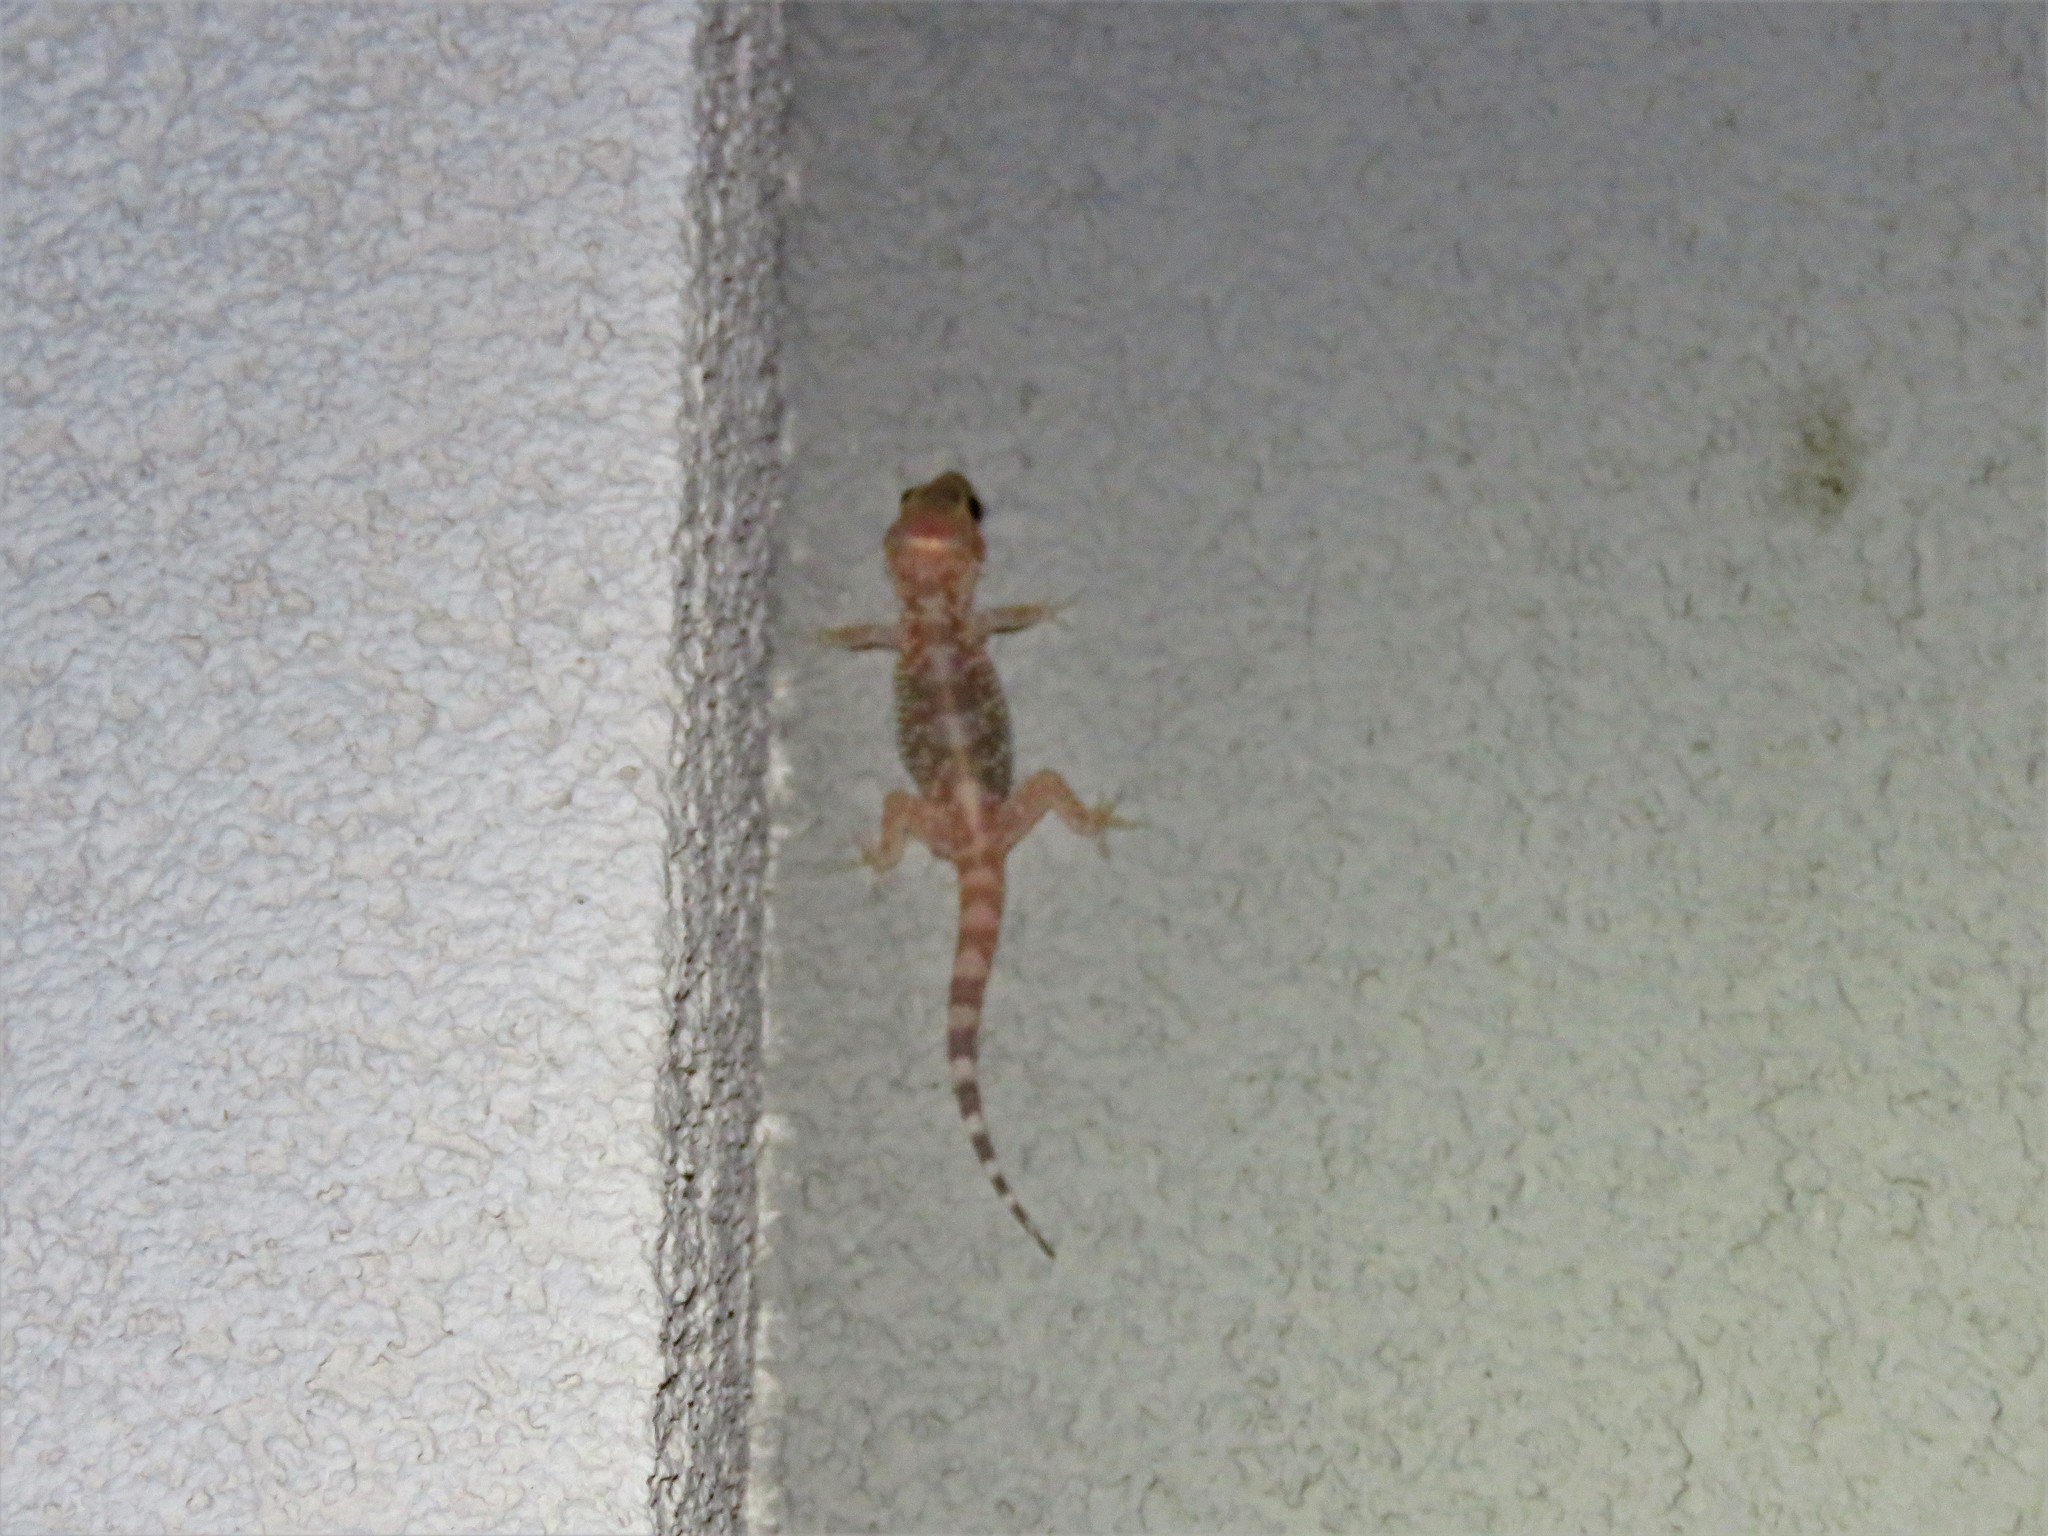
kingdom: Animalia
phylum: Chordata
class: Squamata
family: Gekkonidae
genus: Hemidactylus
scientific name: Hemidactylus turcicus
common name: Turkish gecko
